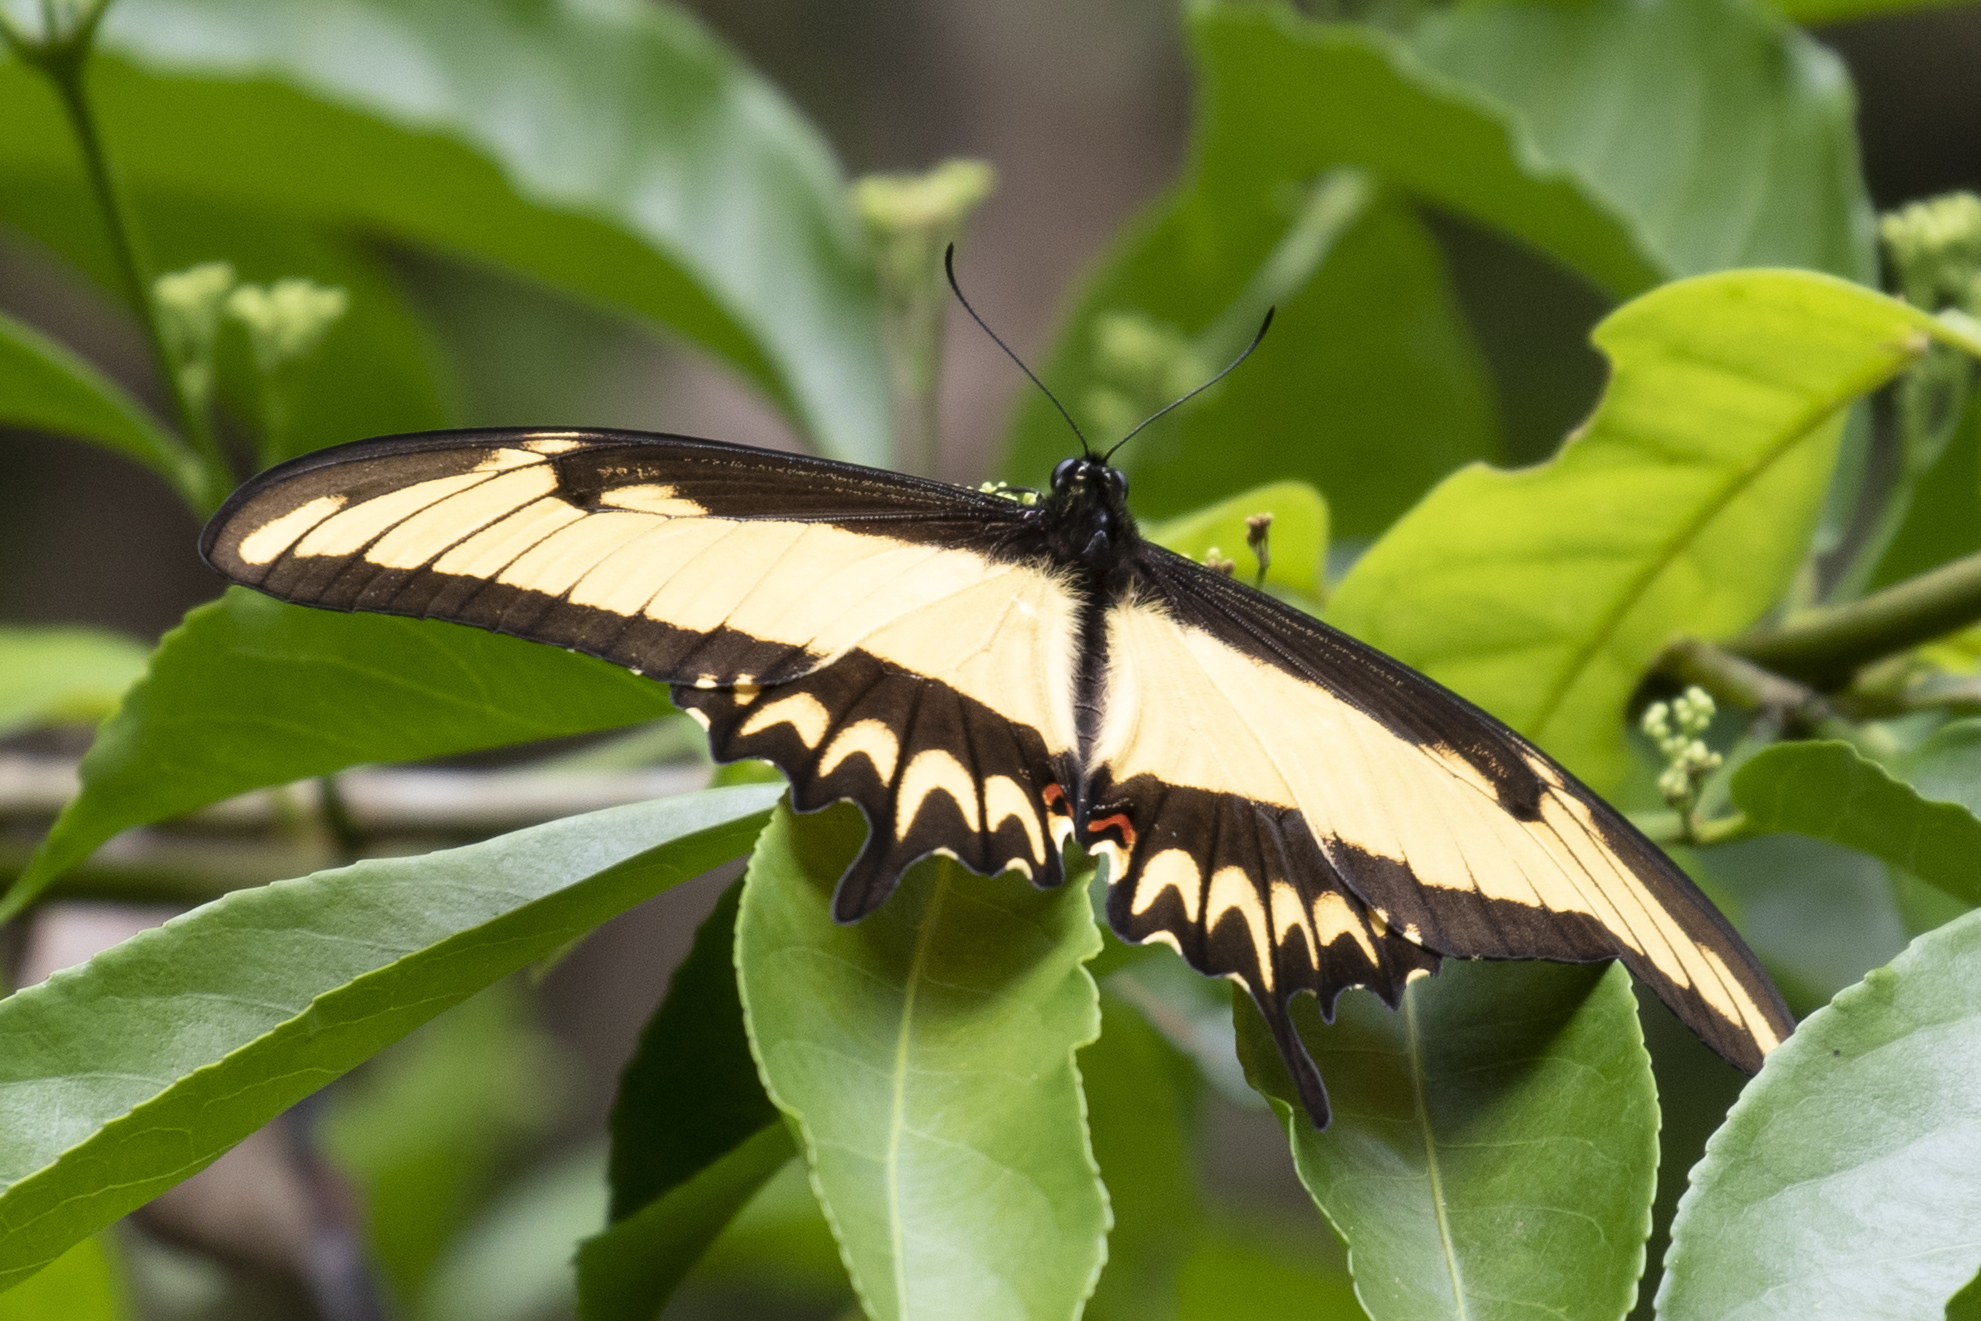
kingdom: Animalia
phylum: Arthropoda
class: Insecta
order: Lepidoptera
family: Papilionidae
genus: Papilio
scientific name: Papilio astyalus
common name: Astyalus swallowtail
